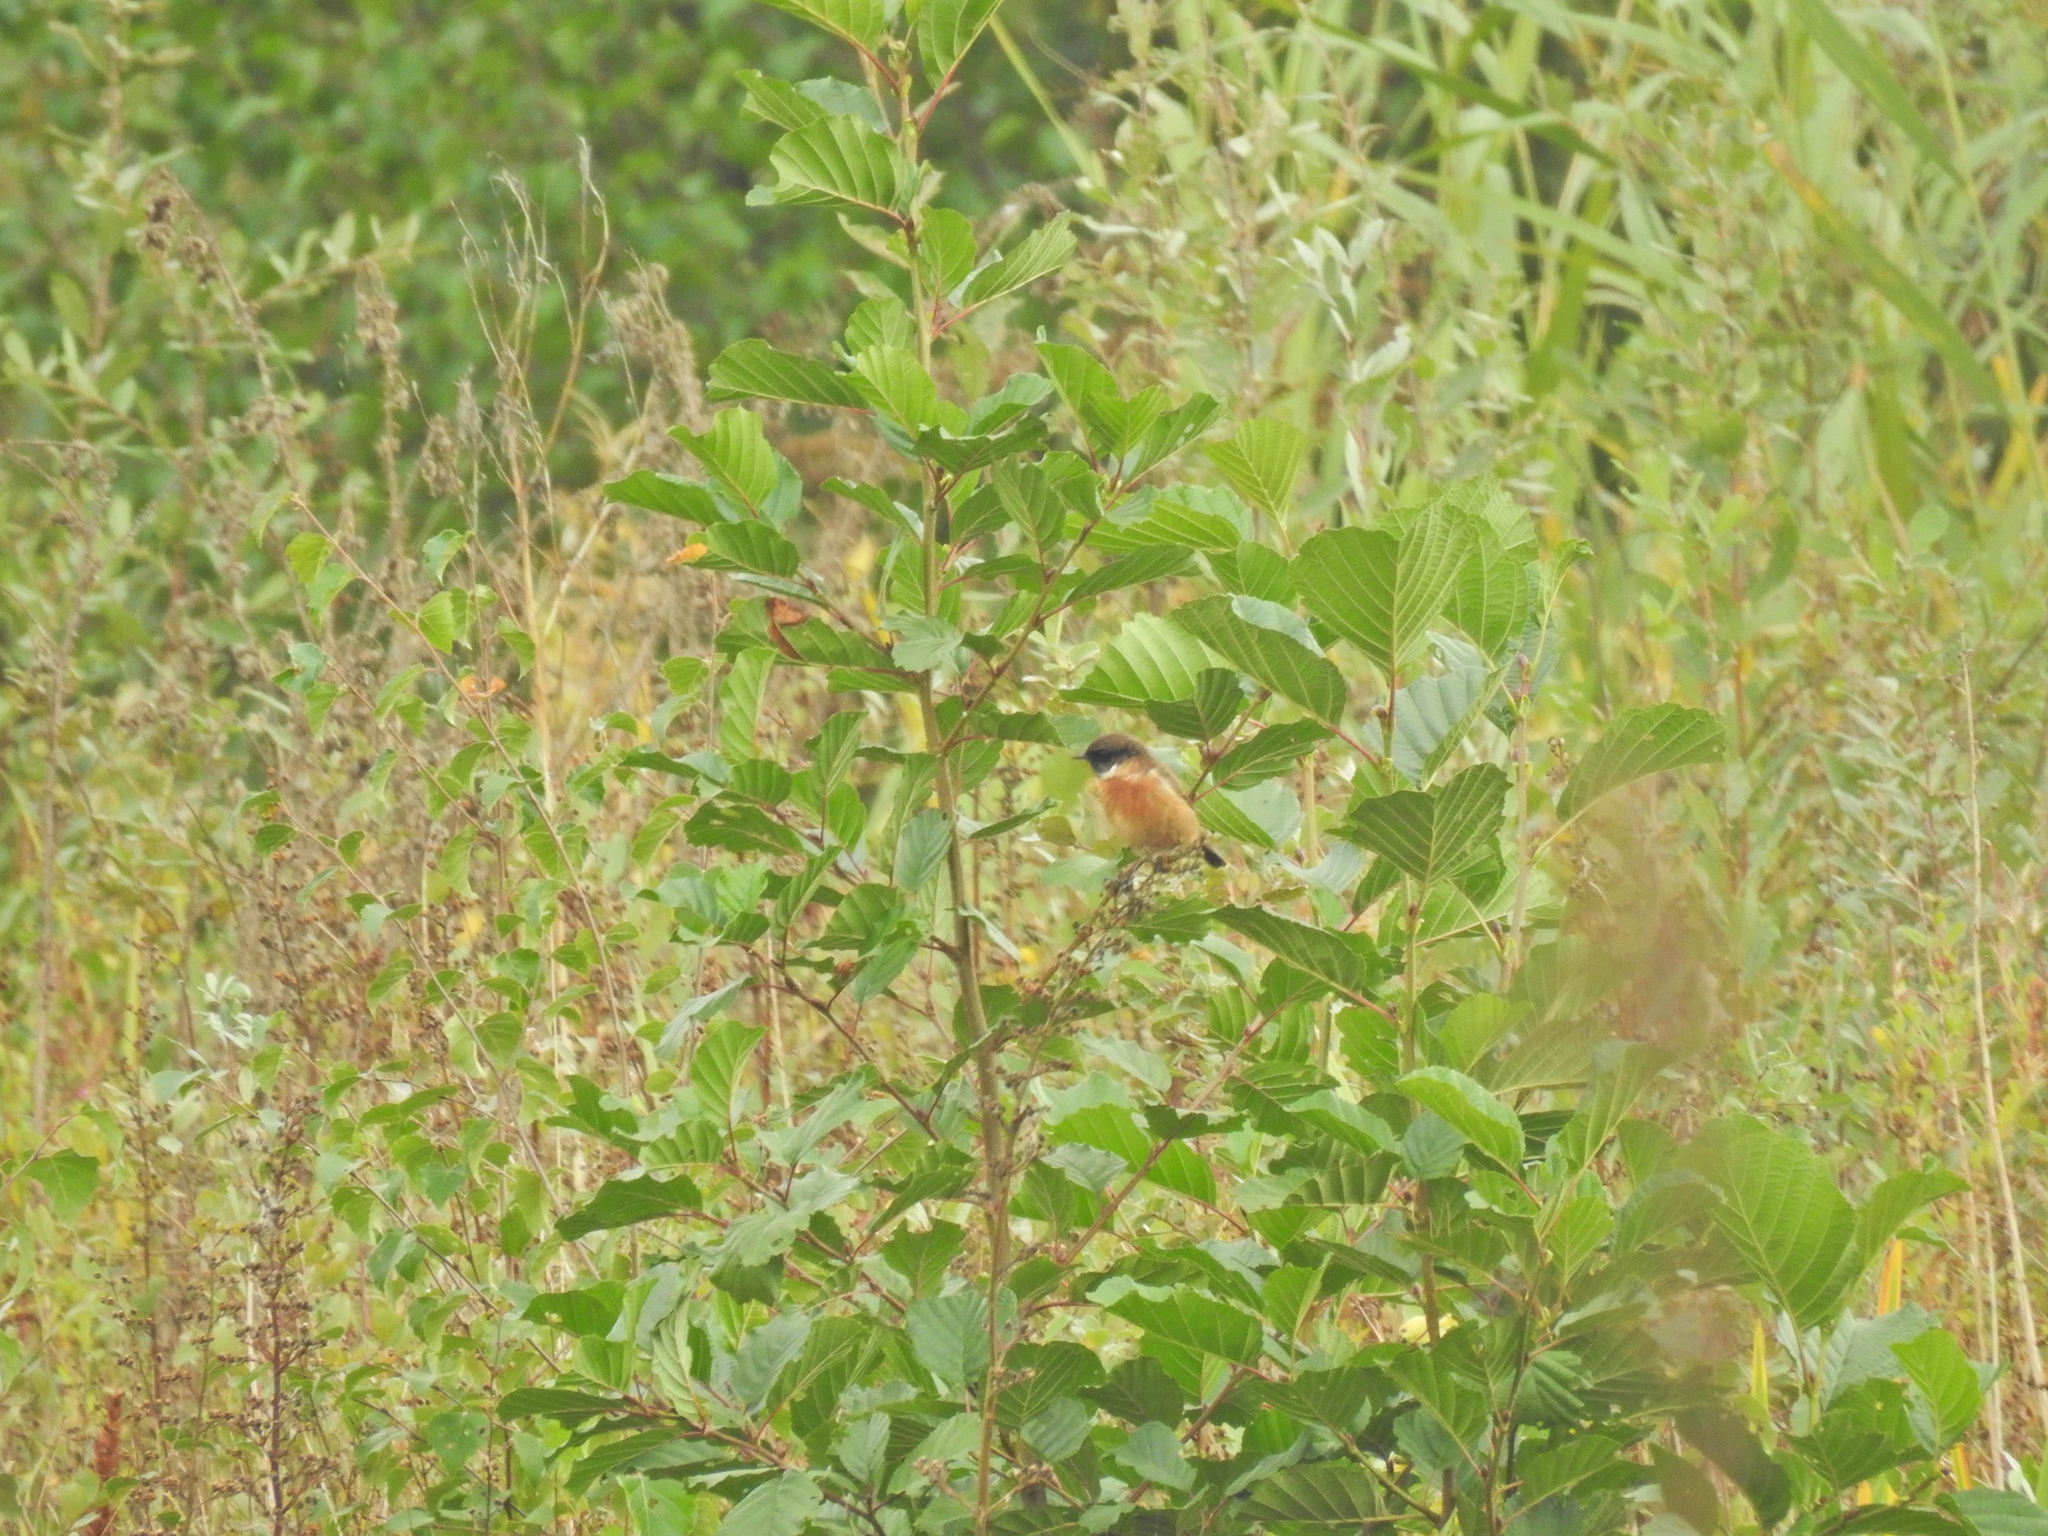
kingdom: Animalia
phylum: Chordata
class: Aves
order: Passeriformes
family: Muscicapidae
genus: Saxicola
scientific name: Saxicola rubicola
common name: European stonechat
